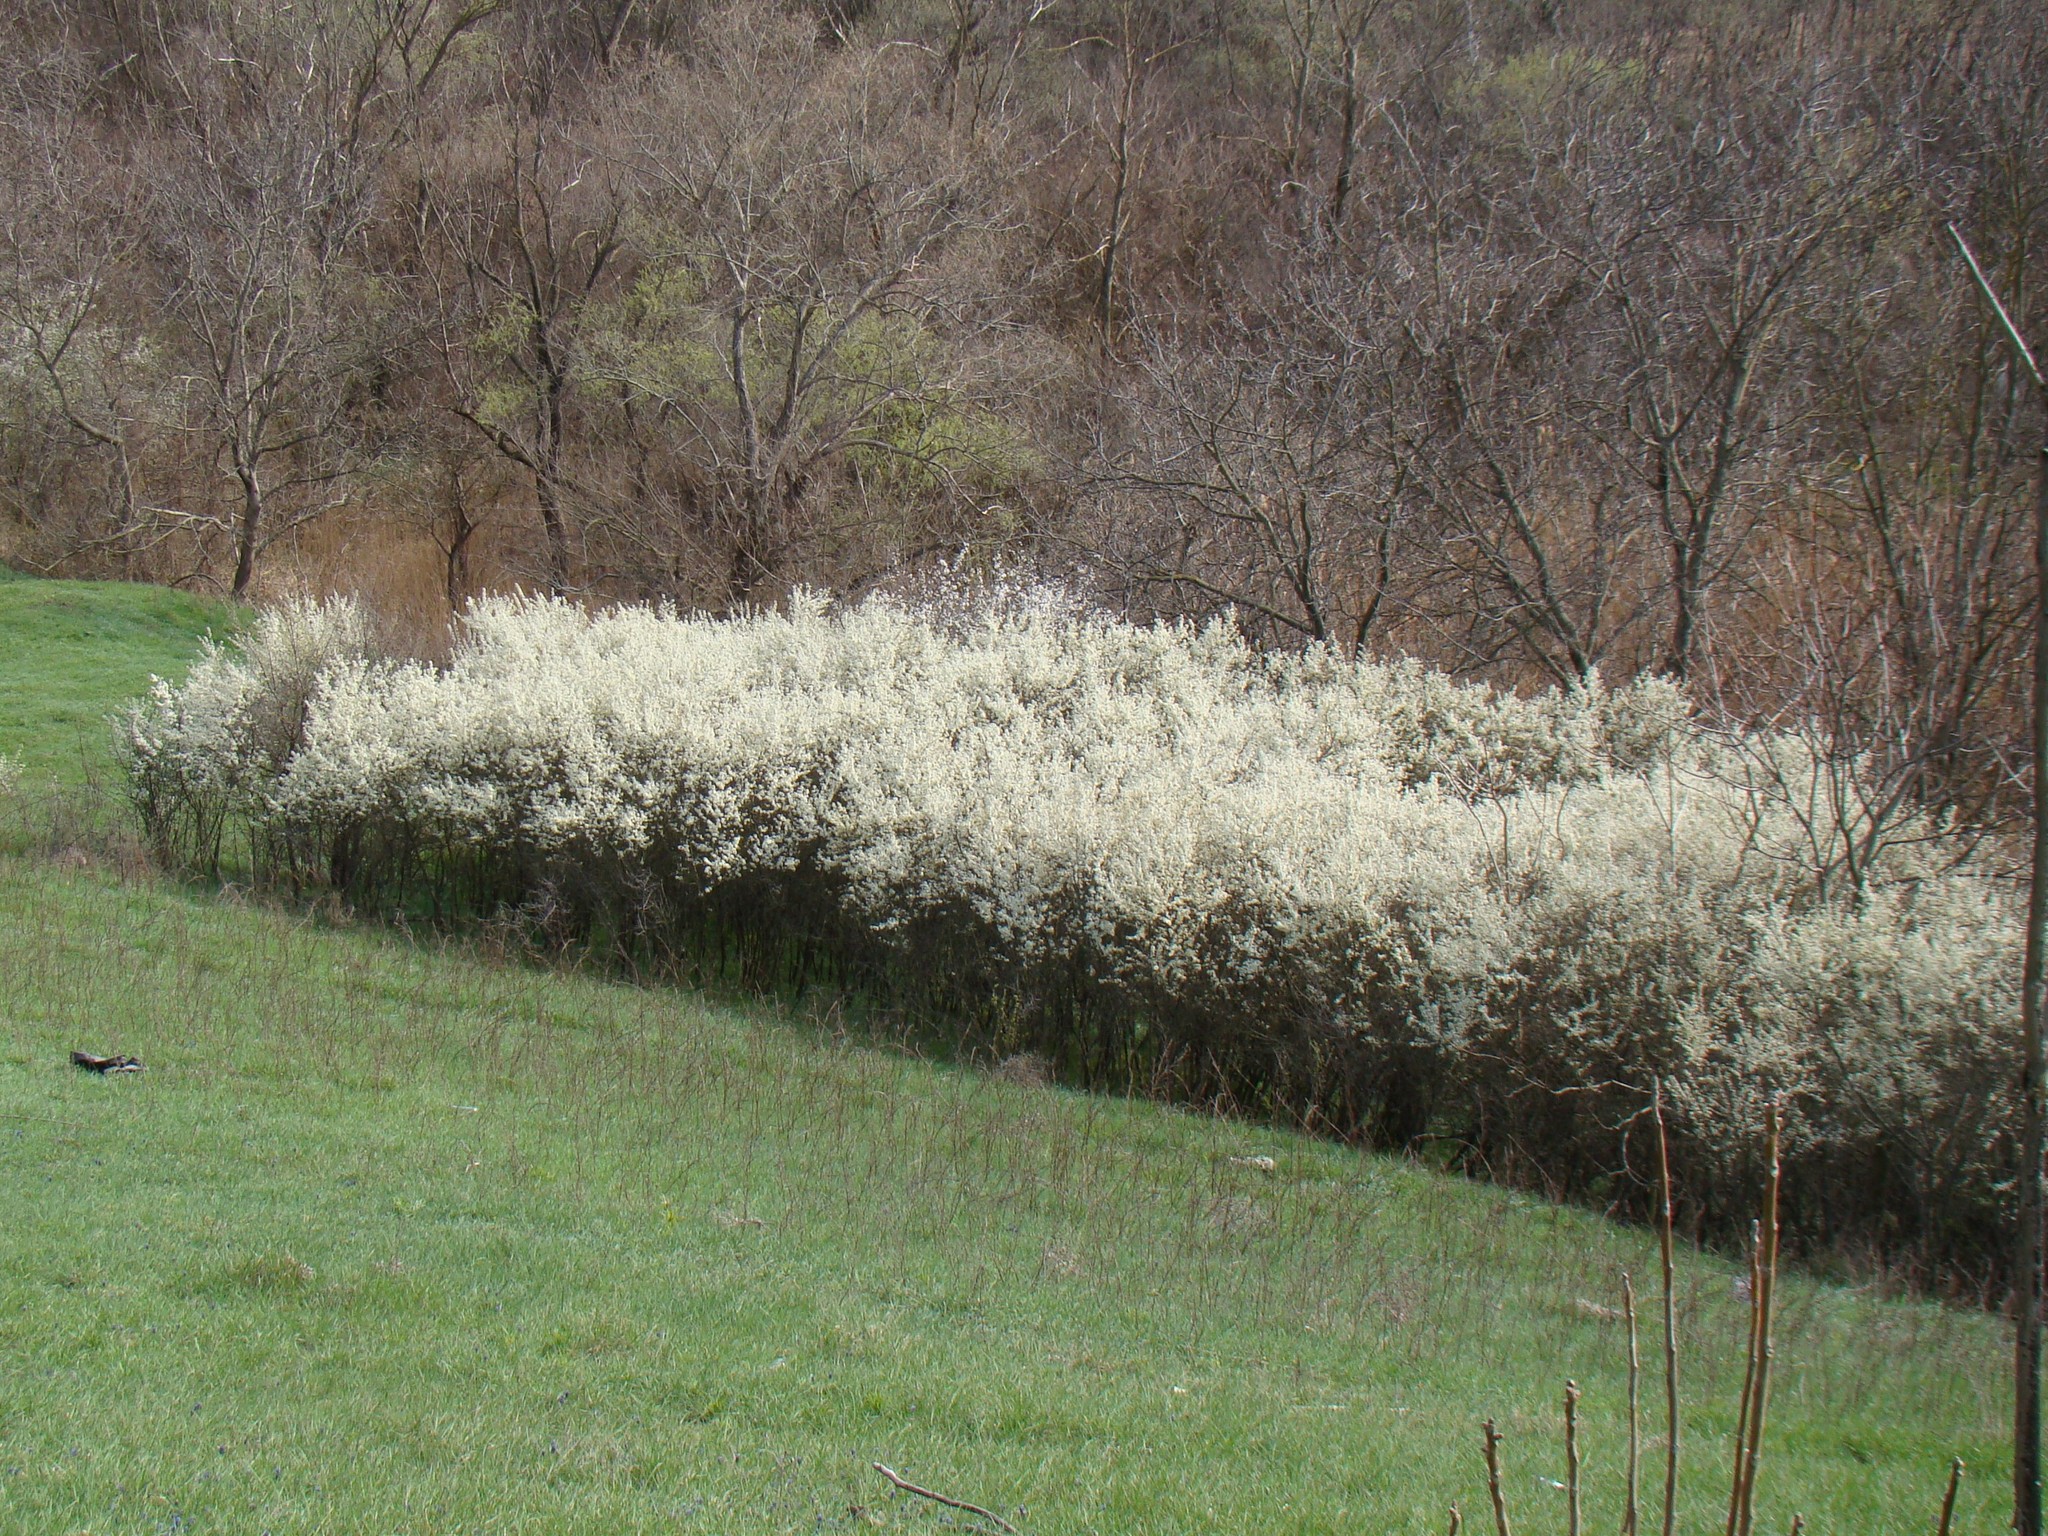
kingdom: Plantae
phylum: Tracheophyta
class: Magnoliopsida
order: Rosales
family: Rosaceae
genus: Prunus
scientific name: Prunus spinosa
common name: Blackthorn
